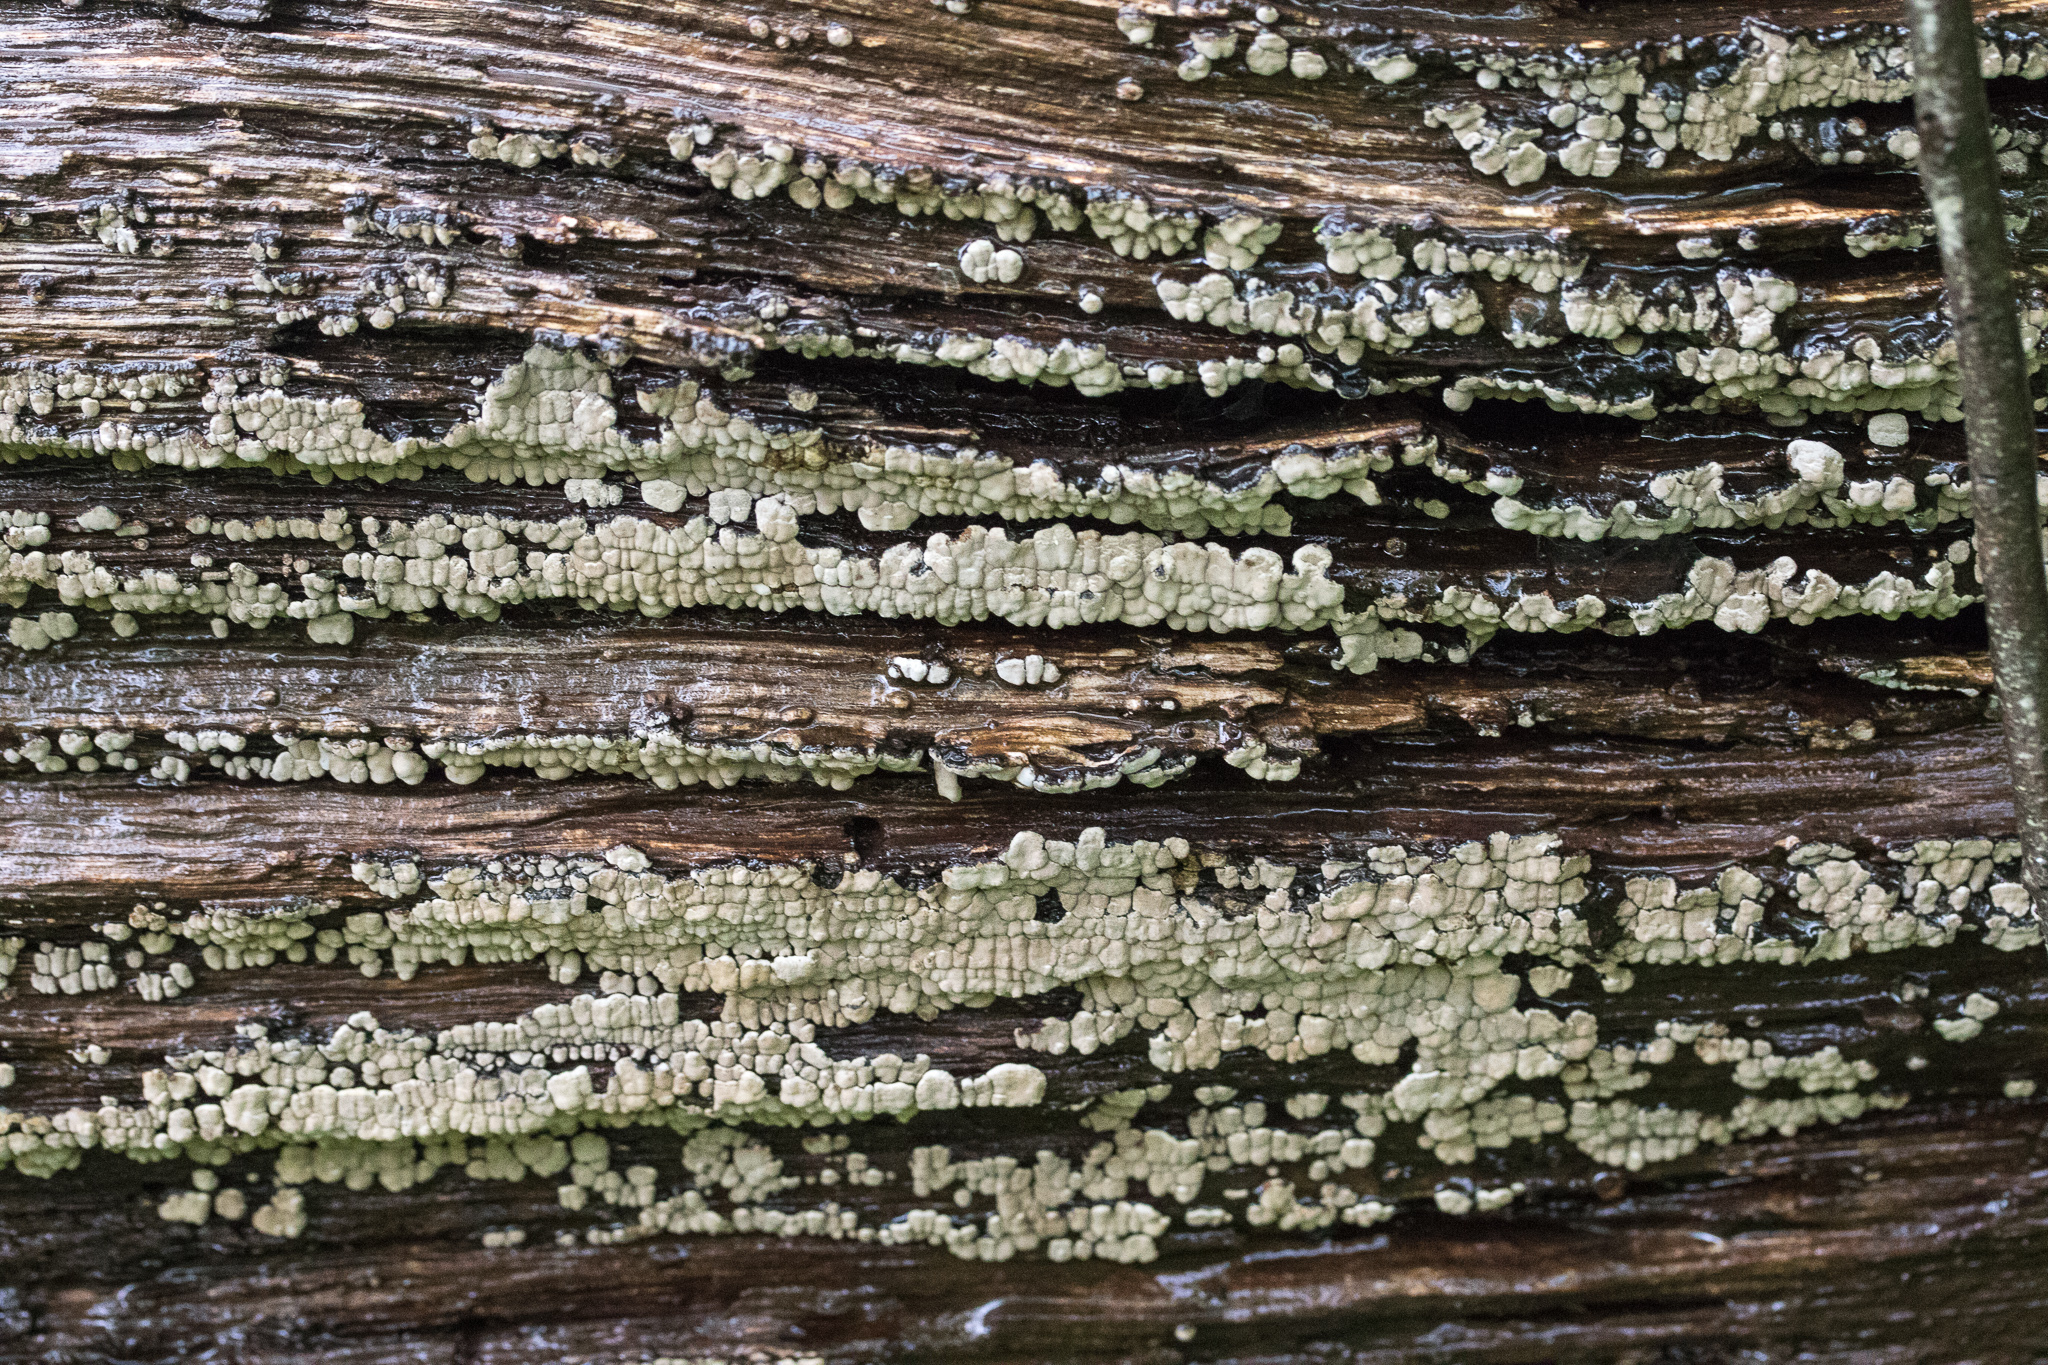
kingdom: Fungi
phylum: Basidiomycota
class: Agaricomycetes
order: Russulales
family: Stereaceae
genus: Xylobolus
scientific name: Xylobolus frustulatus
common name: Ceramic parchment
